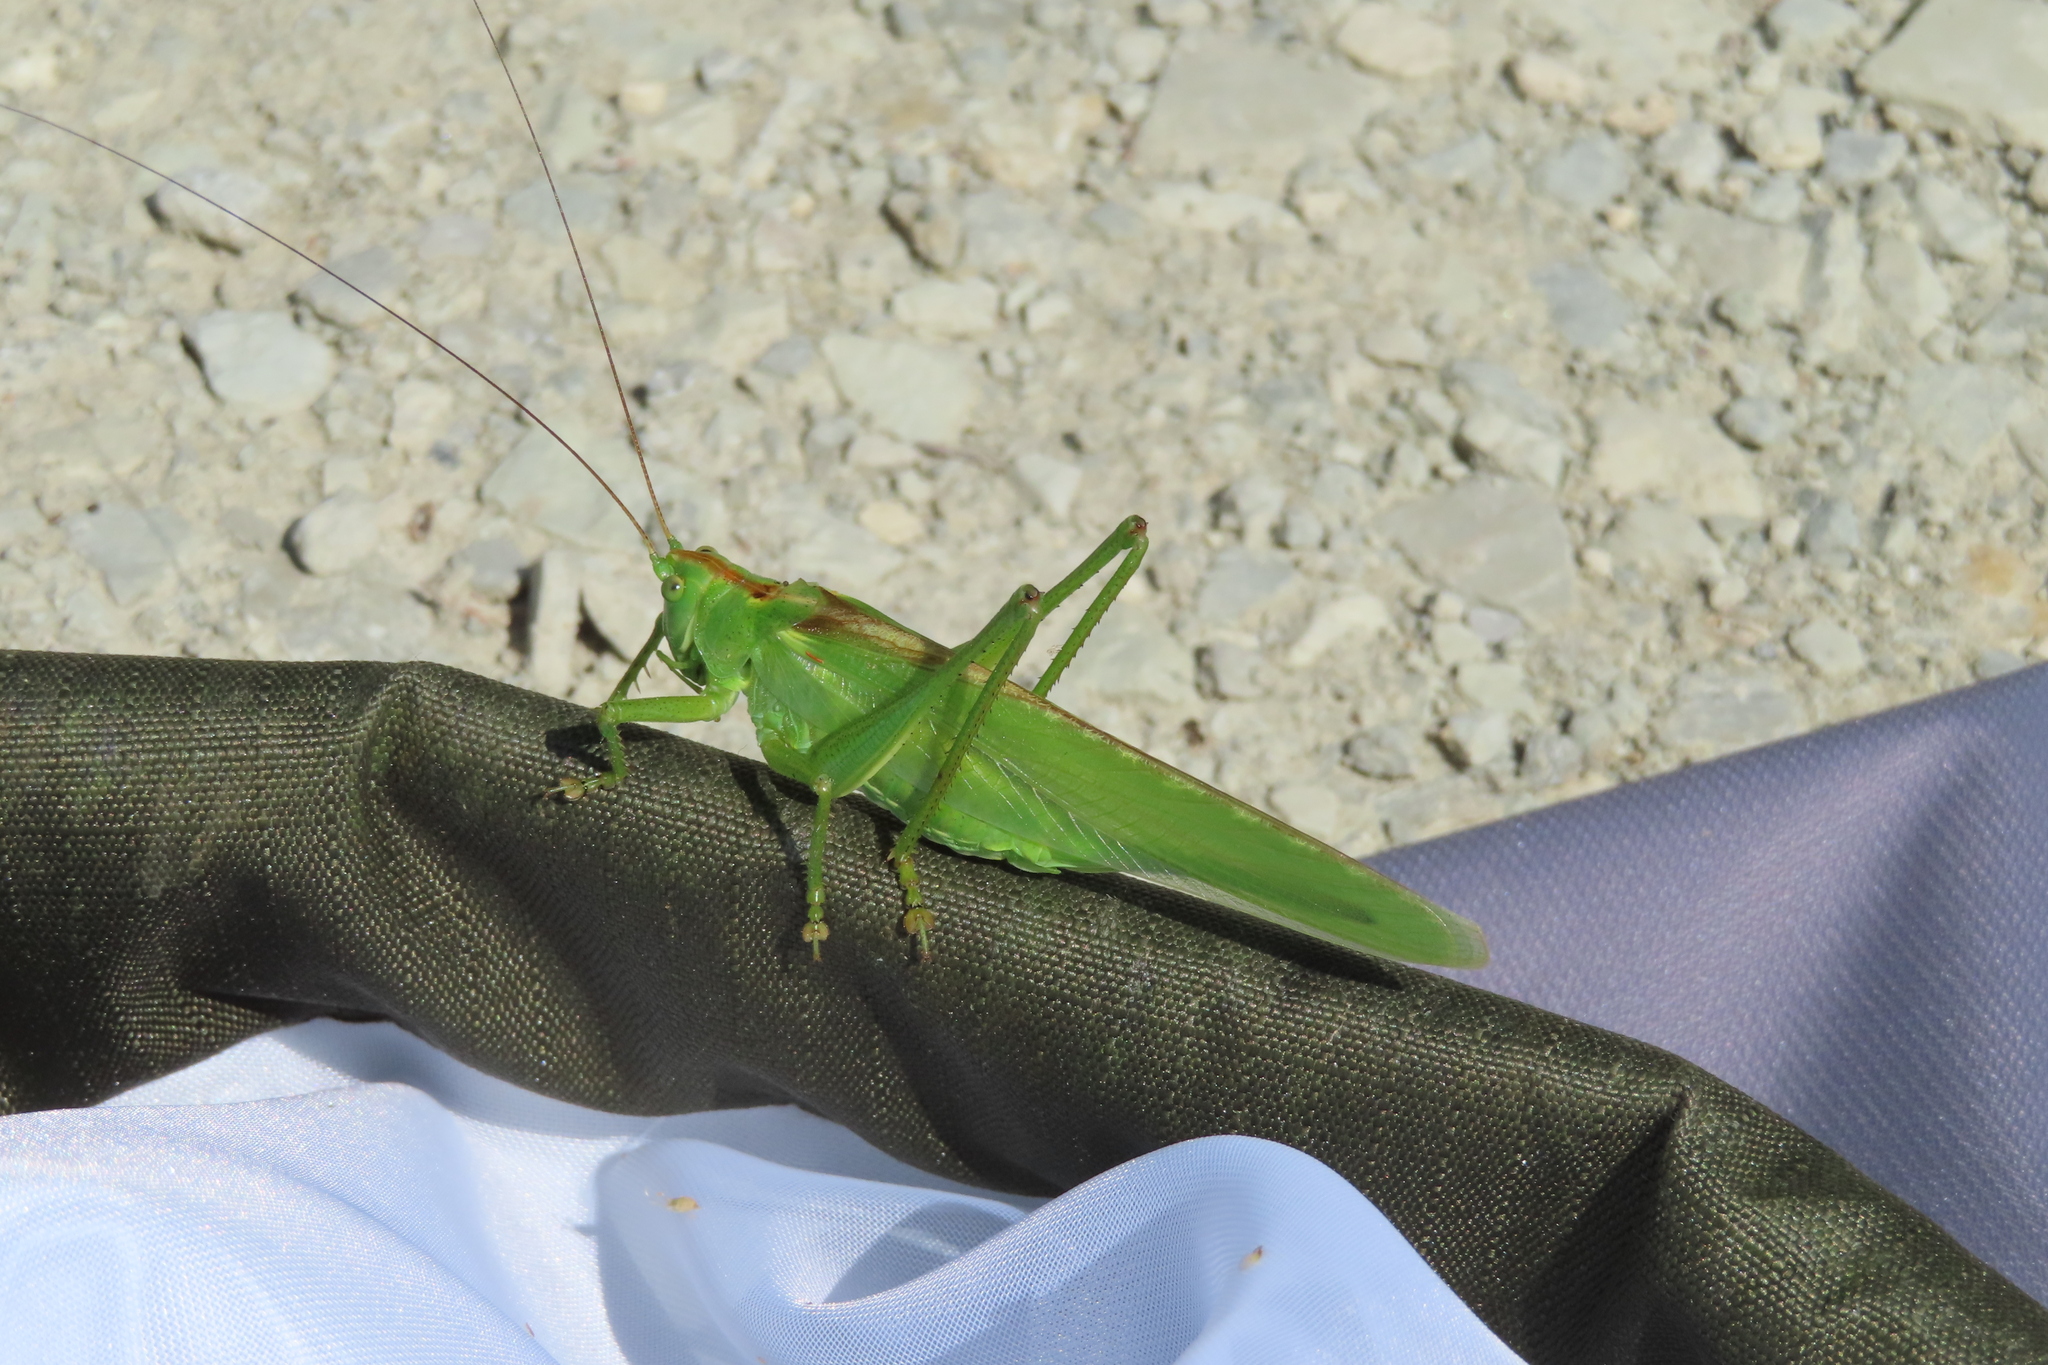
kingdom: Animalia
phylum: Arthropoda
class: Insecta
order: Orthoptera
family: Tettigoniidae
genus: Tettigonia
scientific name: Tettigonia viridissima
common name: Great green bush-cricket
